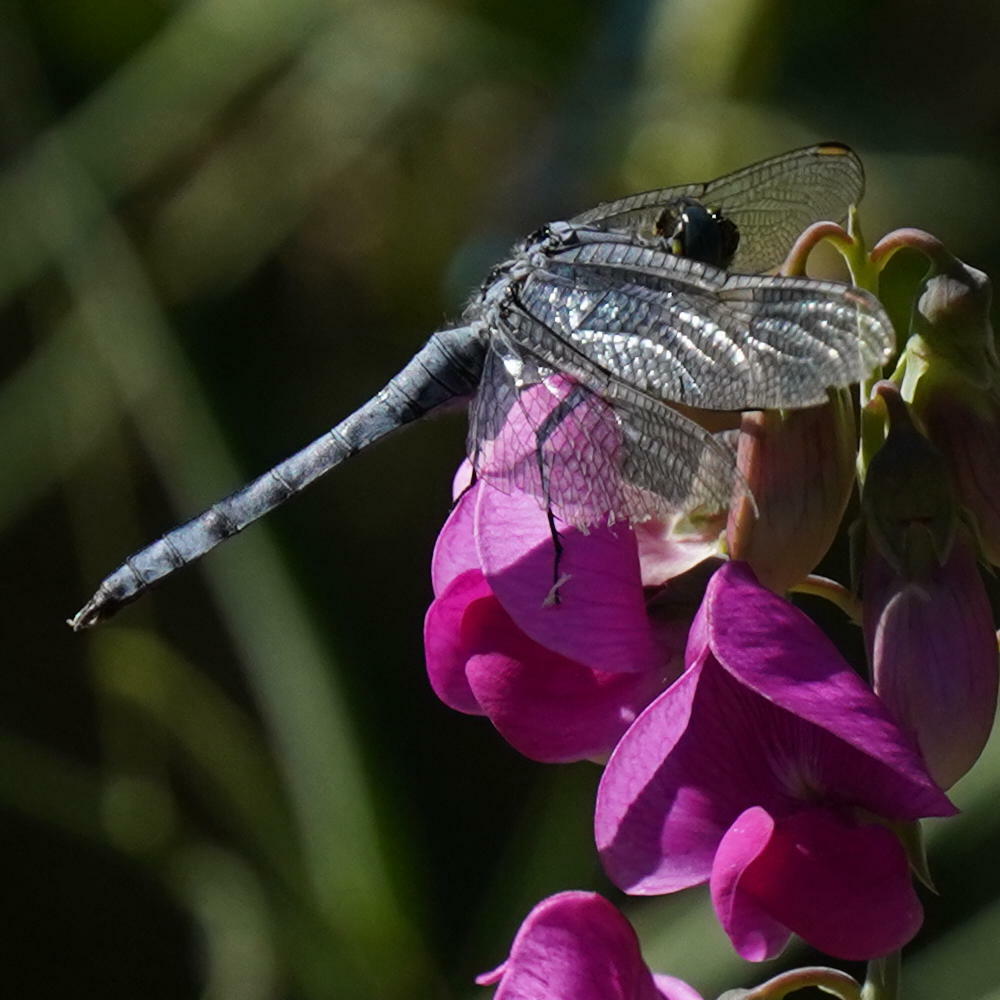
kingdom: Animalia
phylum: Arthropoda
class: Insecta
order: Odonata
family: Libellulidae
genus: Erythemis
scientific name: Erythemis collocata
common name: Western pondhawk
